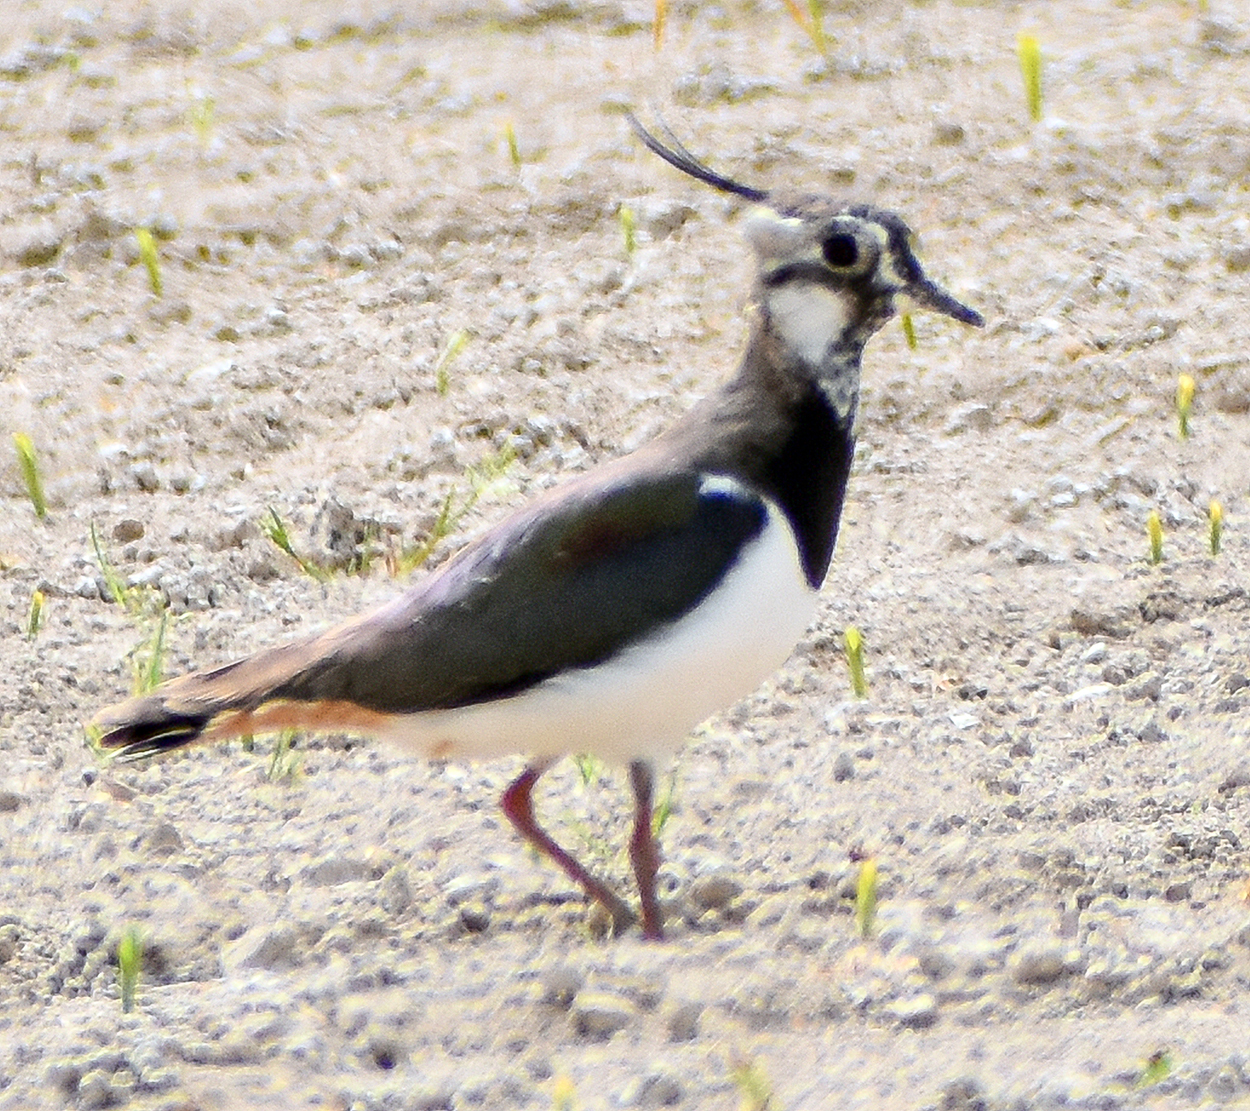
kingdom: Animalia
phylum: Chordata
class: Aves
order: Charadriiformes
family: Charadriidae
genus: Vanellus
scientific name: Vanellus vanellus
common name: Northern lapwing
